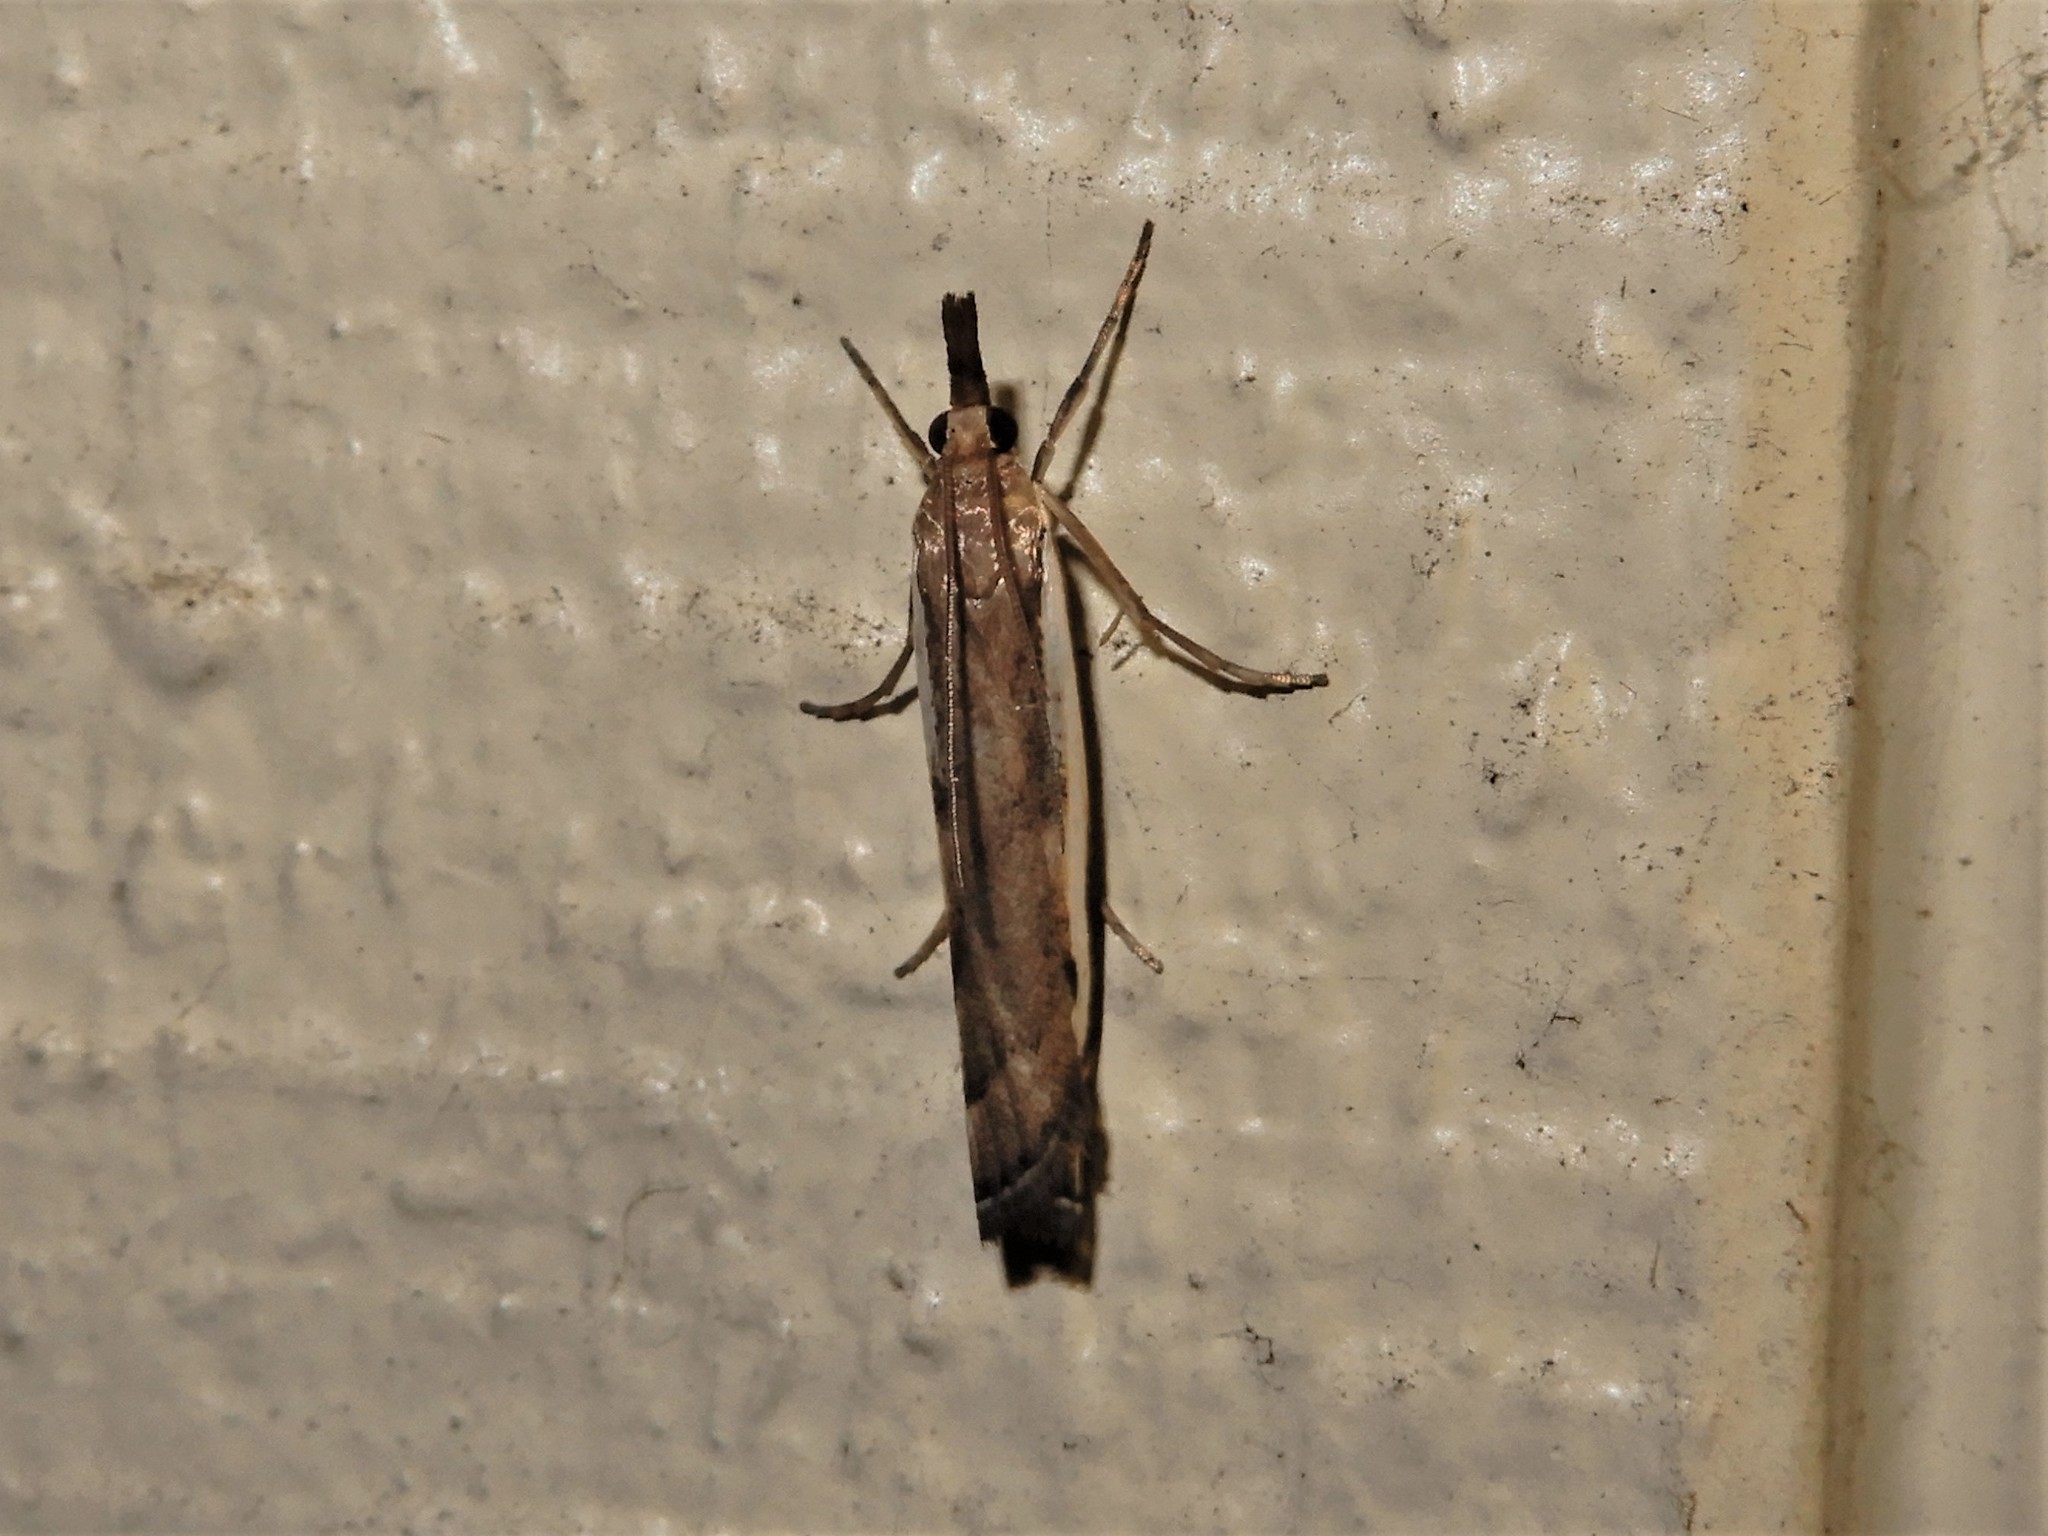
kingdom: Animalia
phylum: Arthropoda
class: Insecta
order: Lepidoptera
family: Crambidae
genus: Orocrambus
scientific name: Orocrambus flexuosellus
